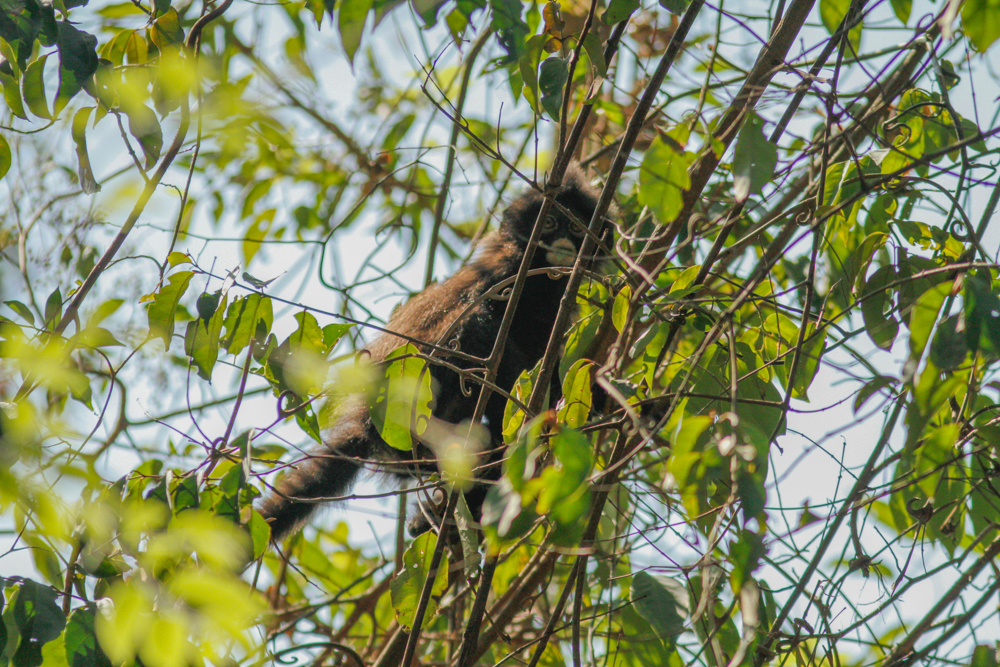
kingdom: Animalia
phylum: Chordata
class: Mammalia
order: Primates
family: Cercopithecidae
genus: Presbytis
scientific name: Presbytis robinsoni
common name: Robinson's banded langur
